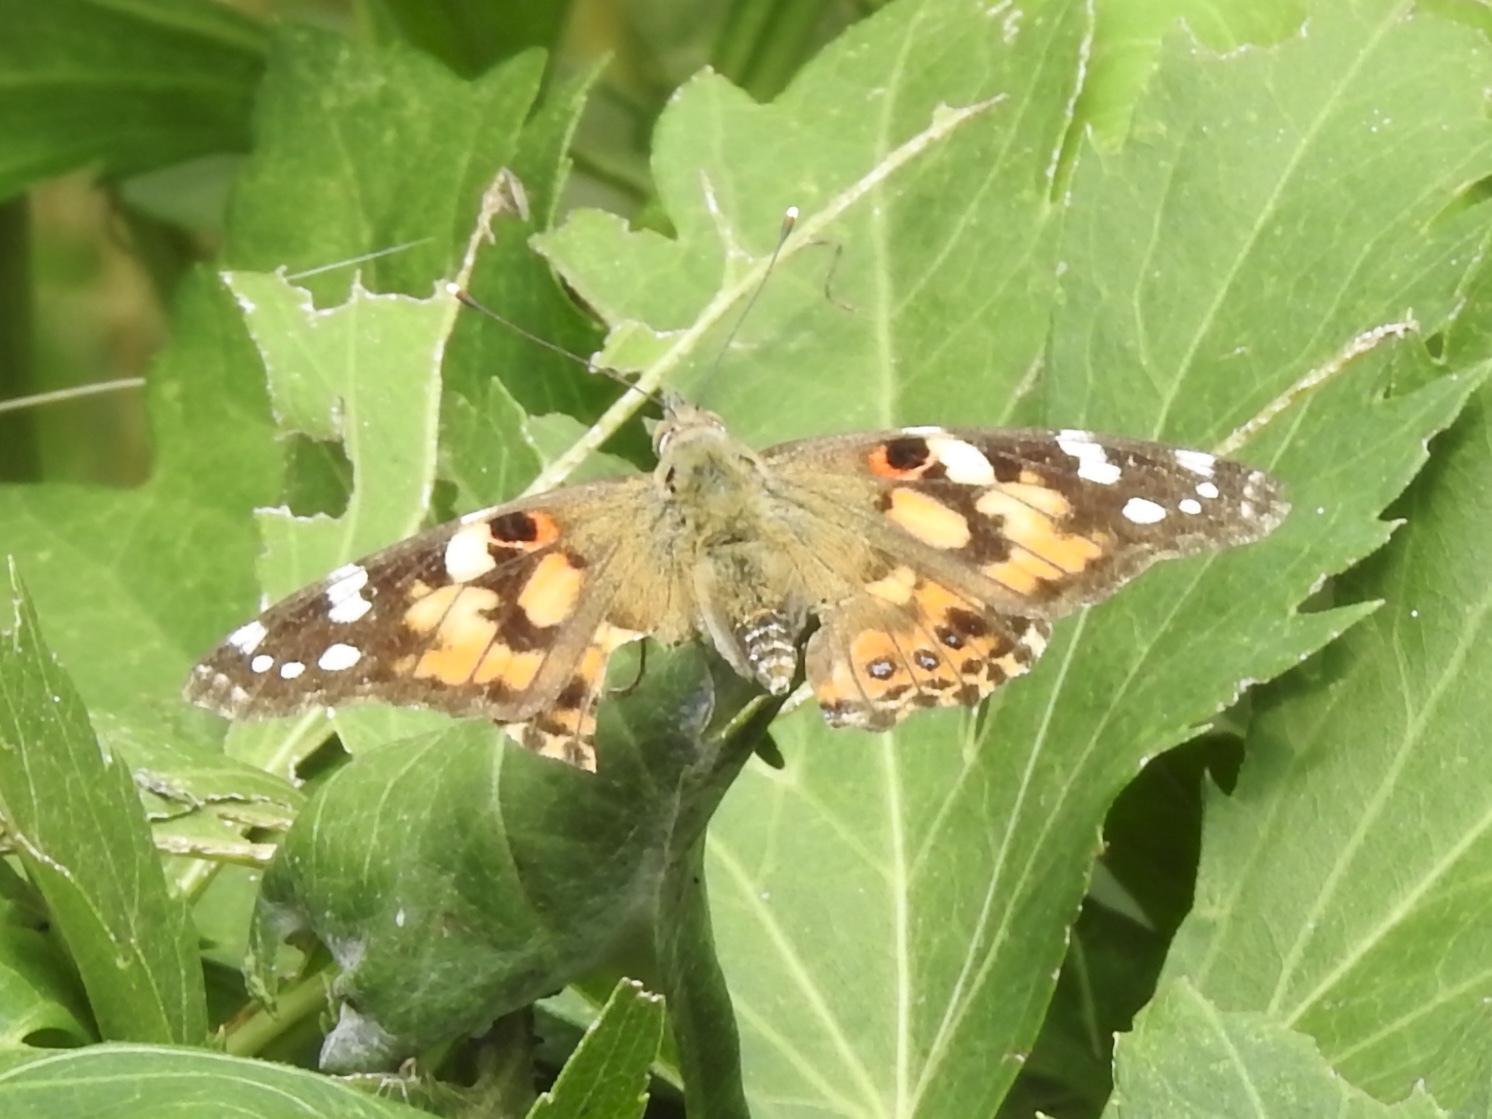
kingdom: Animalia
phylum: Arthropoda
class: Insecta
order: Lepidoptera
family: Nymphalidae
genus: Vanessa
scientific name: Vanessa cardui
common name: Painted lady
